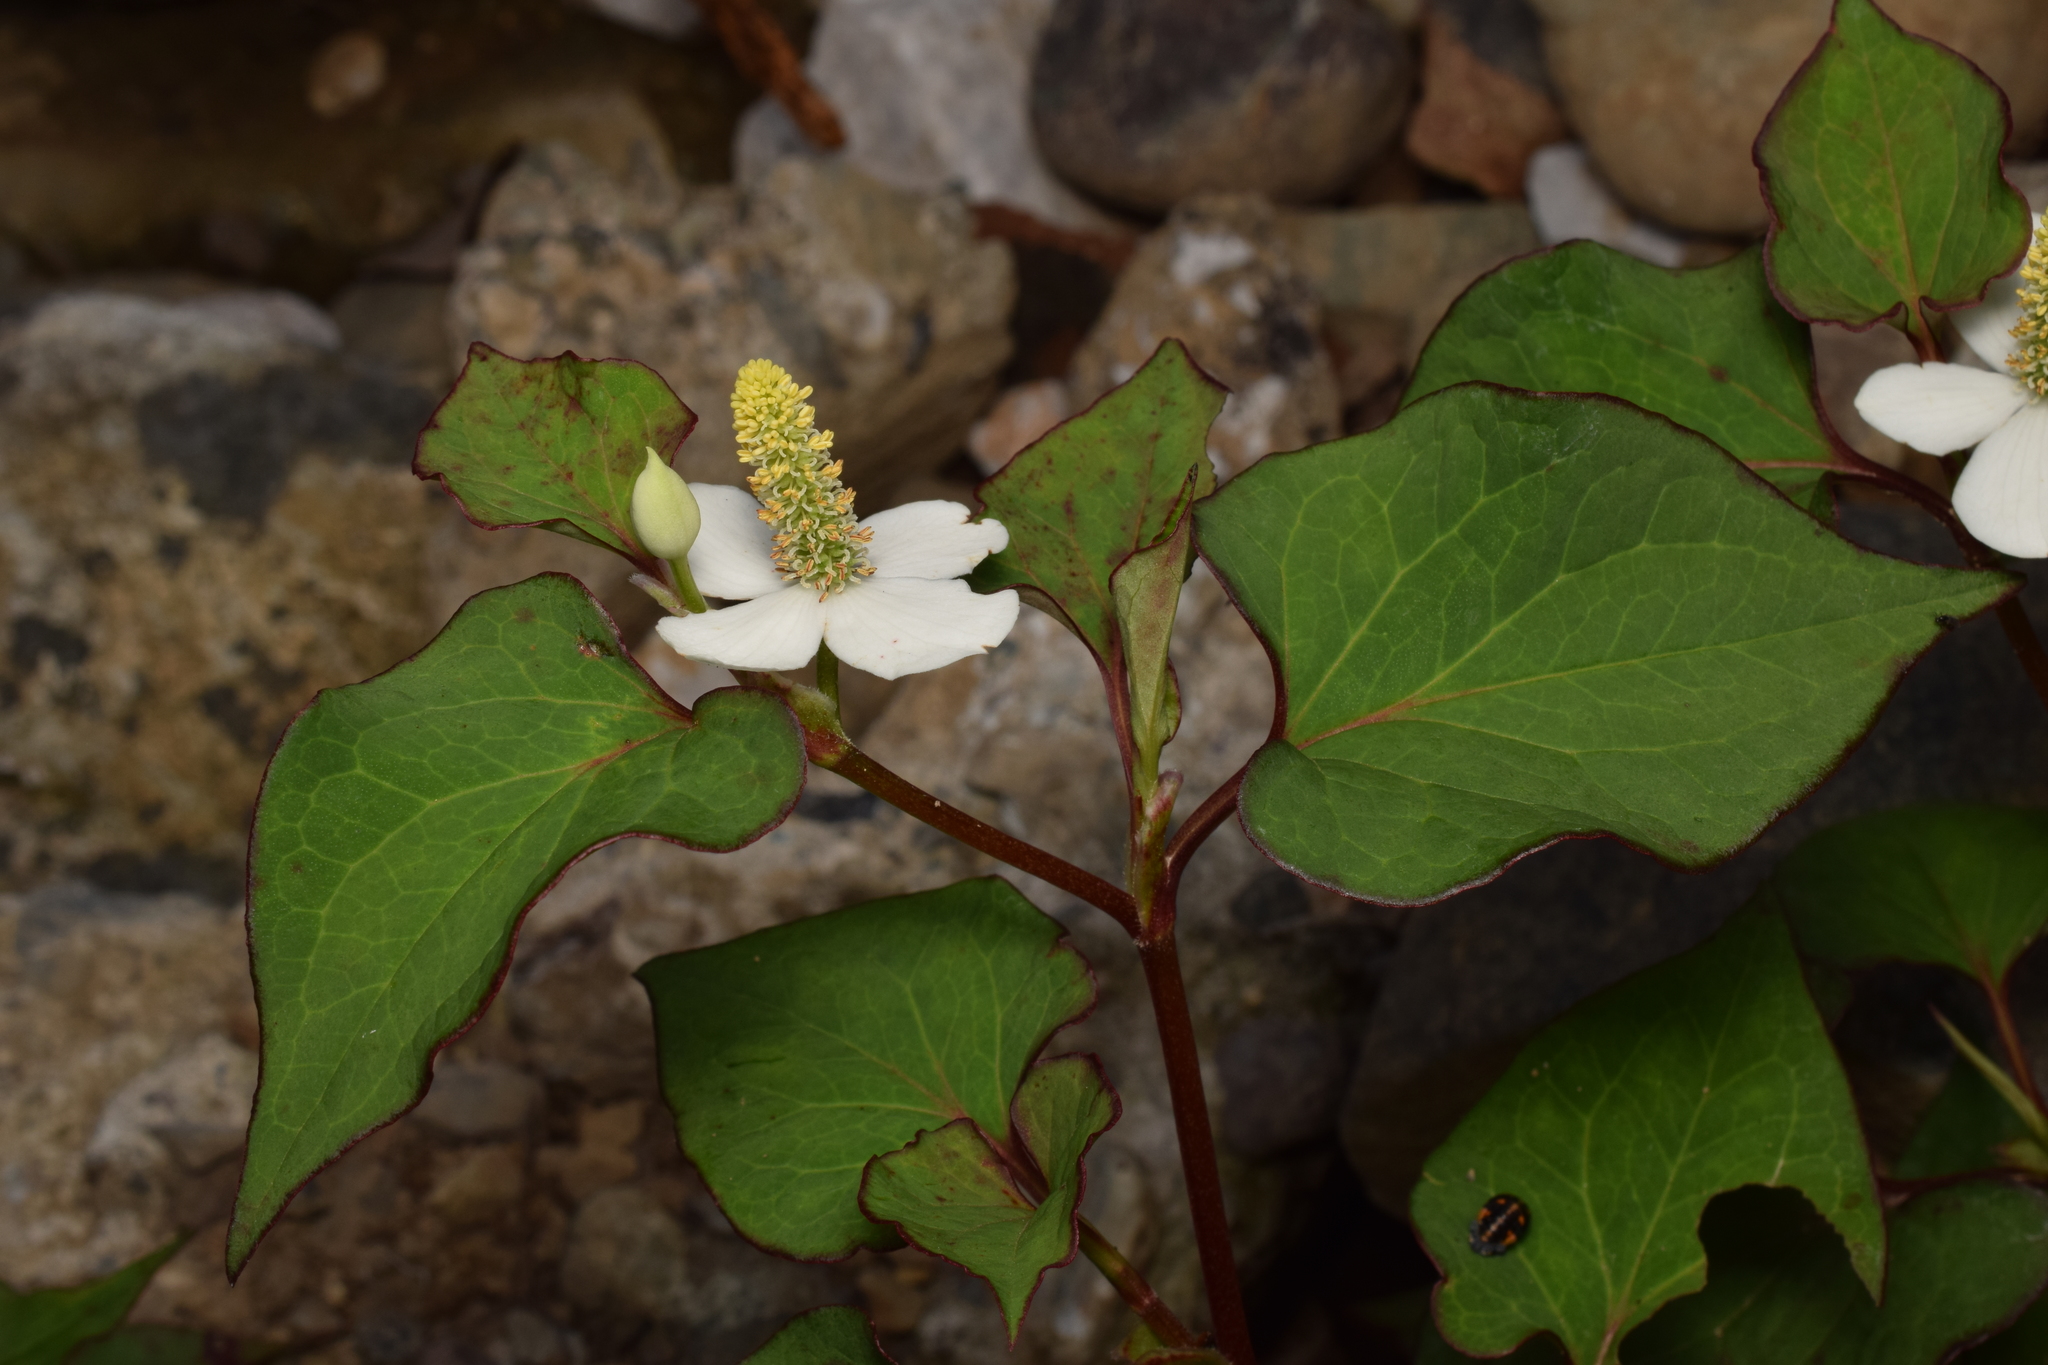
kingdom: Plantae
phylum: Tracheophyta
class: Magnoliopsida
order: Piperales
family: Saururaceae
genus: Houttuynia
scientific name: Houttuynia cordata
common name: Chameleon
